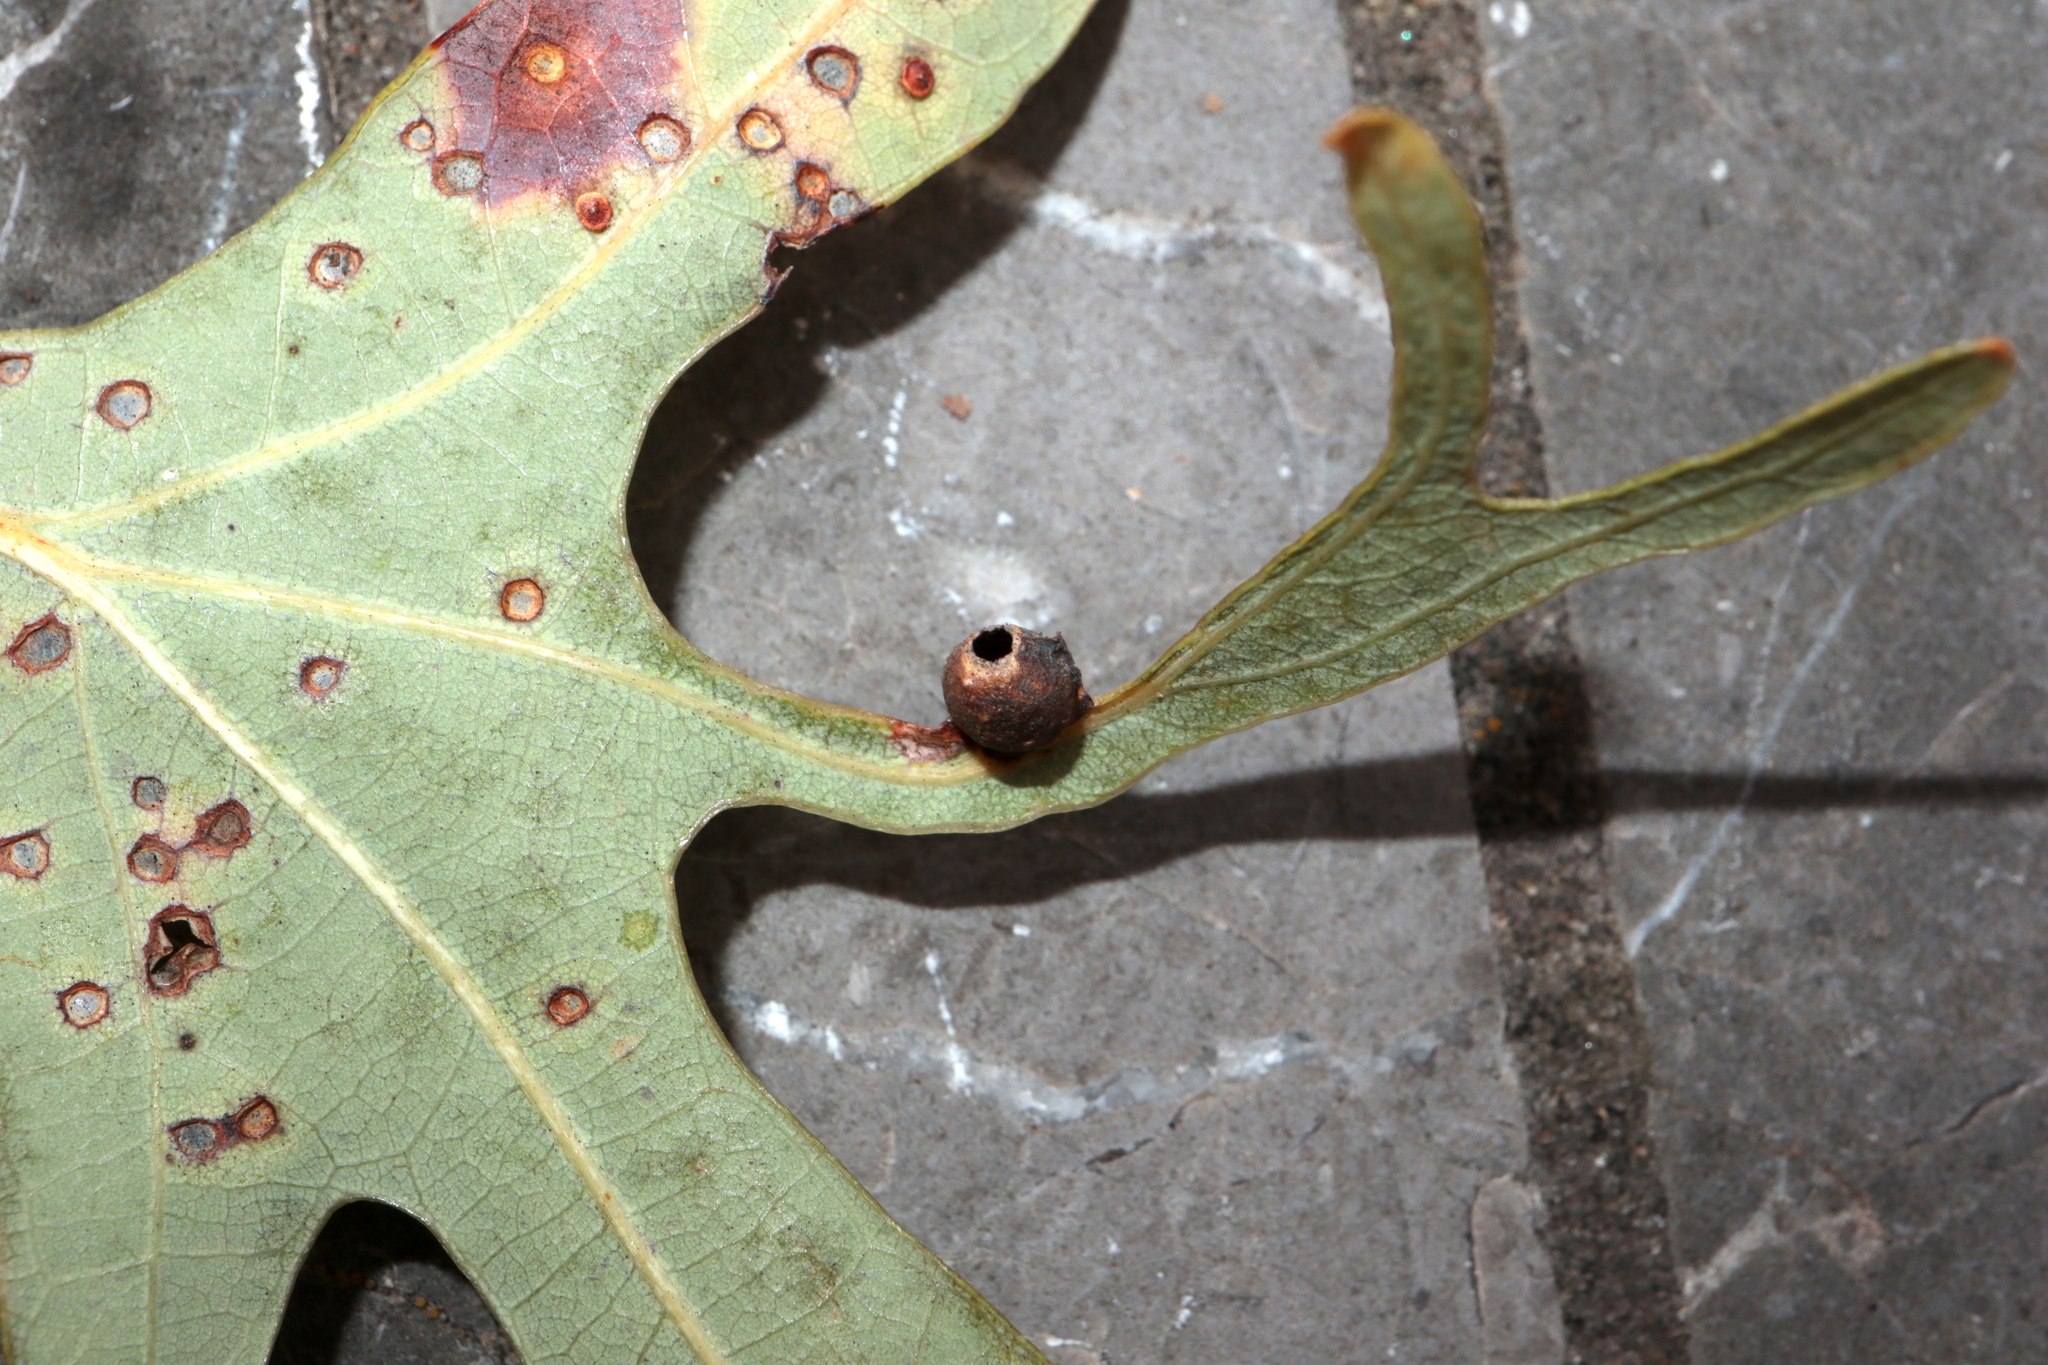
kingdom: Animalia
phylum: Arthropoda
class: Insecta
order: Hymenoptera
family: Cynipidae
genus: Andricus
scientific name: Andricus
